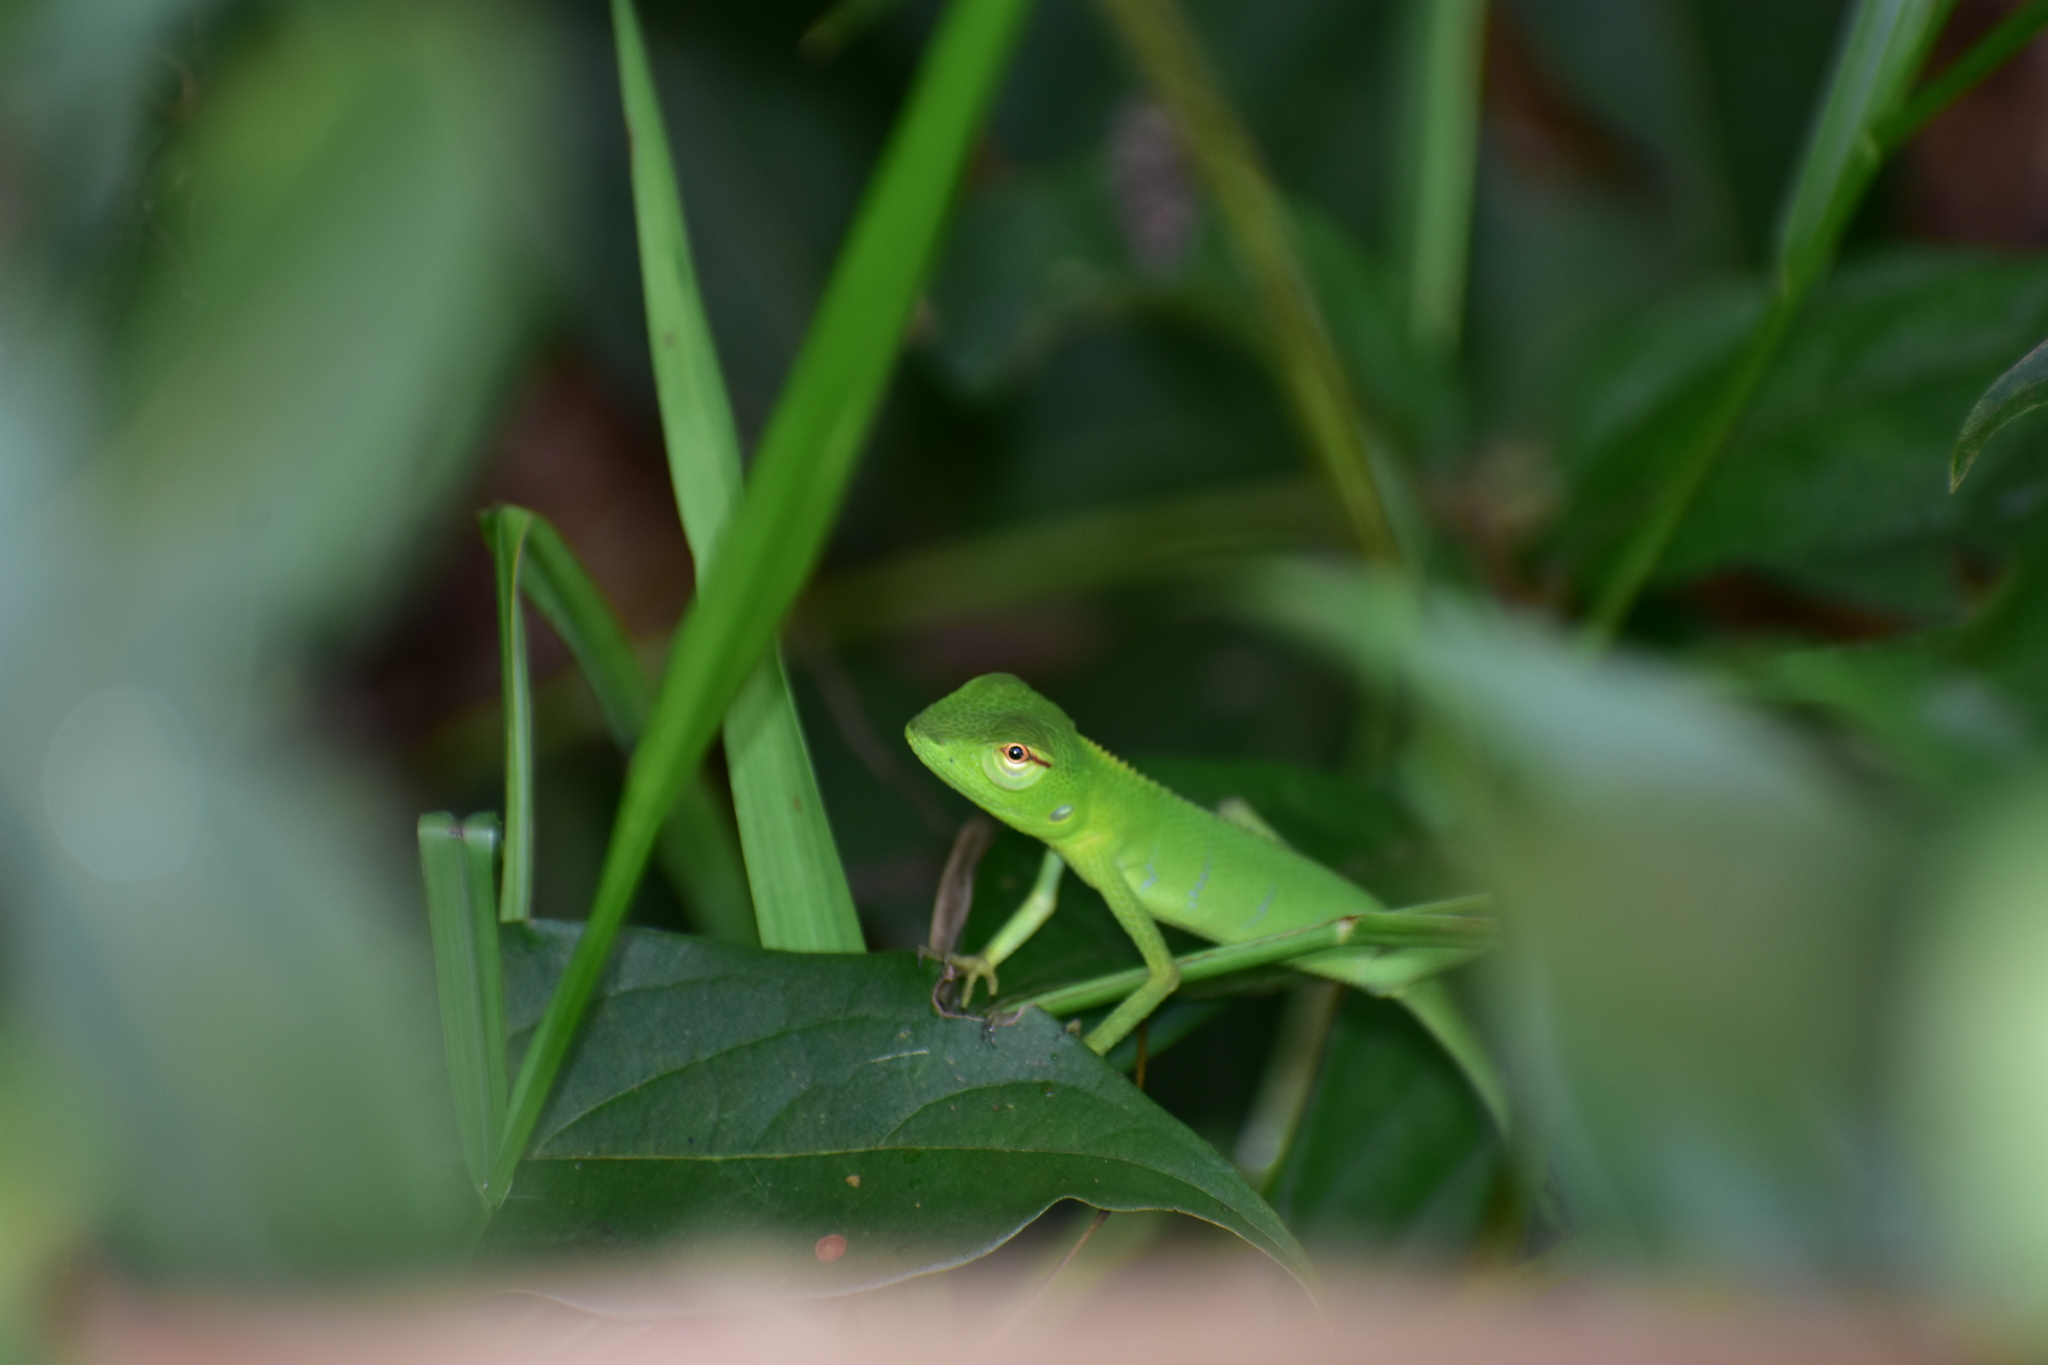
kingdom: Animalia
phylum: Chordata
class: Squamata
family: Agamidae
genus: Calotes
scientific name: Calotes calotes
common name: Common green forest lizard
